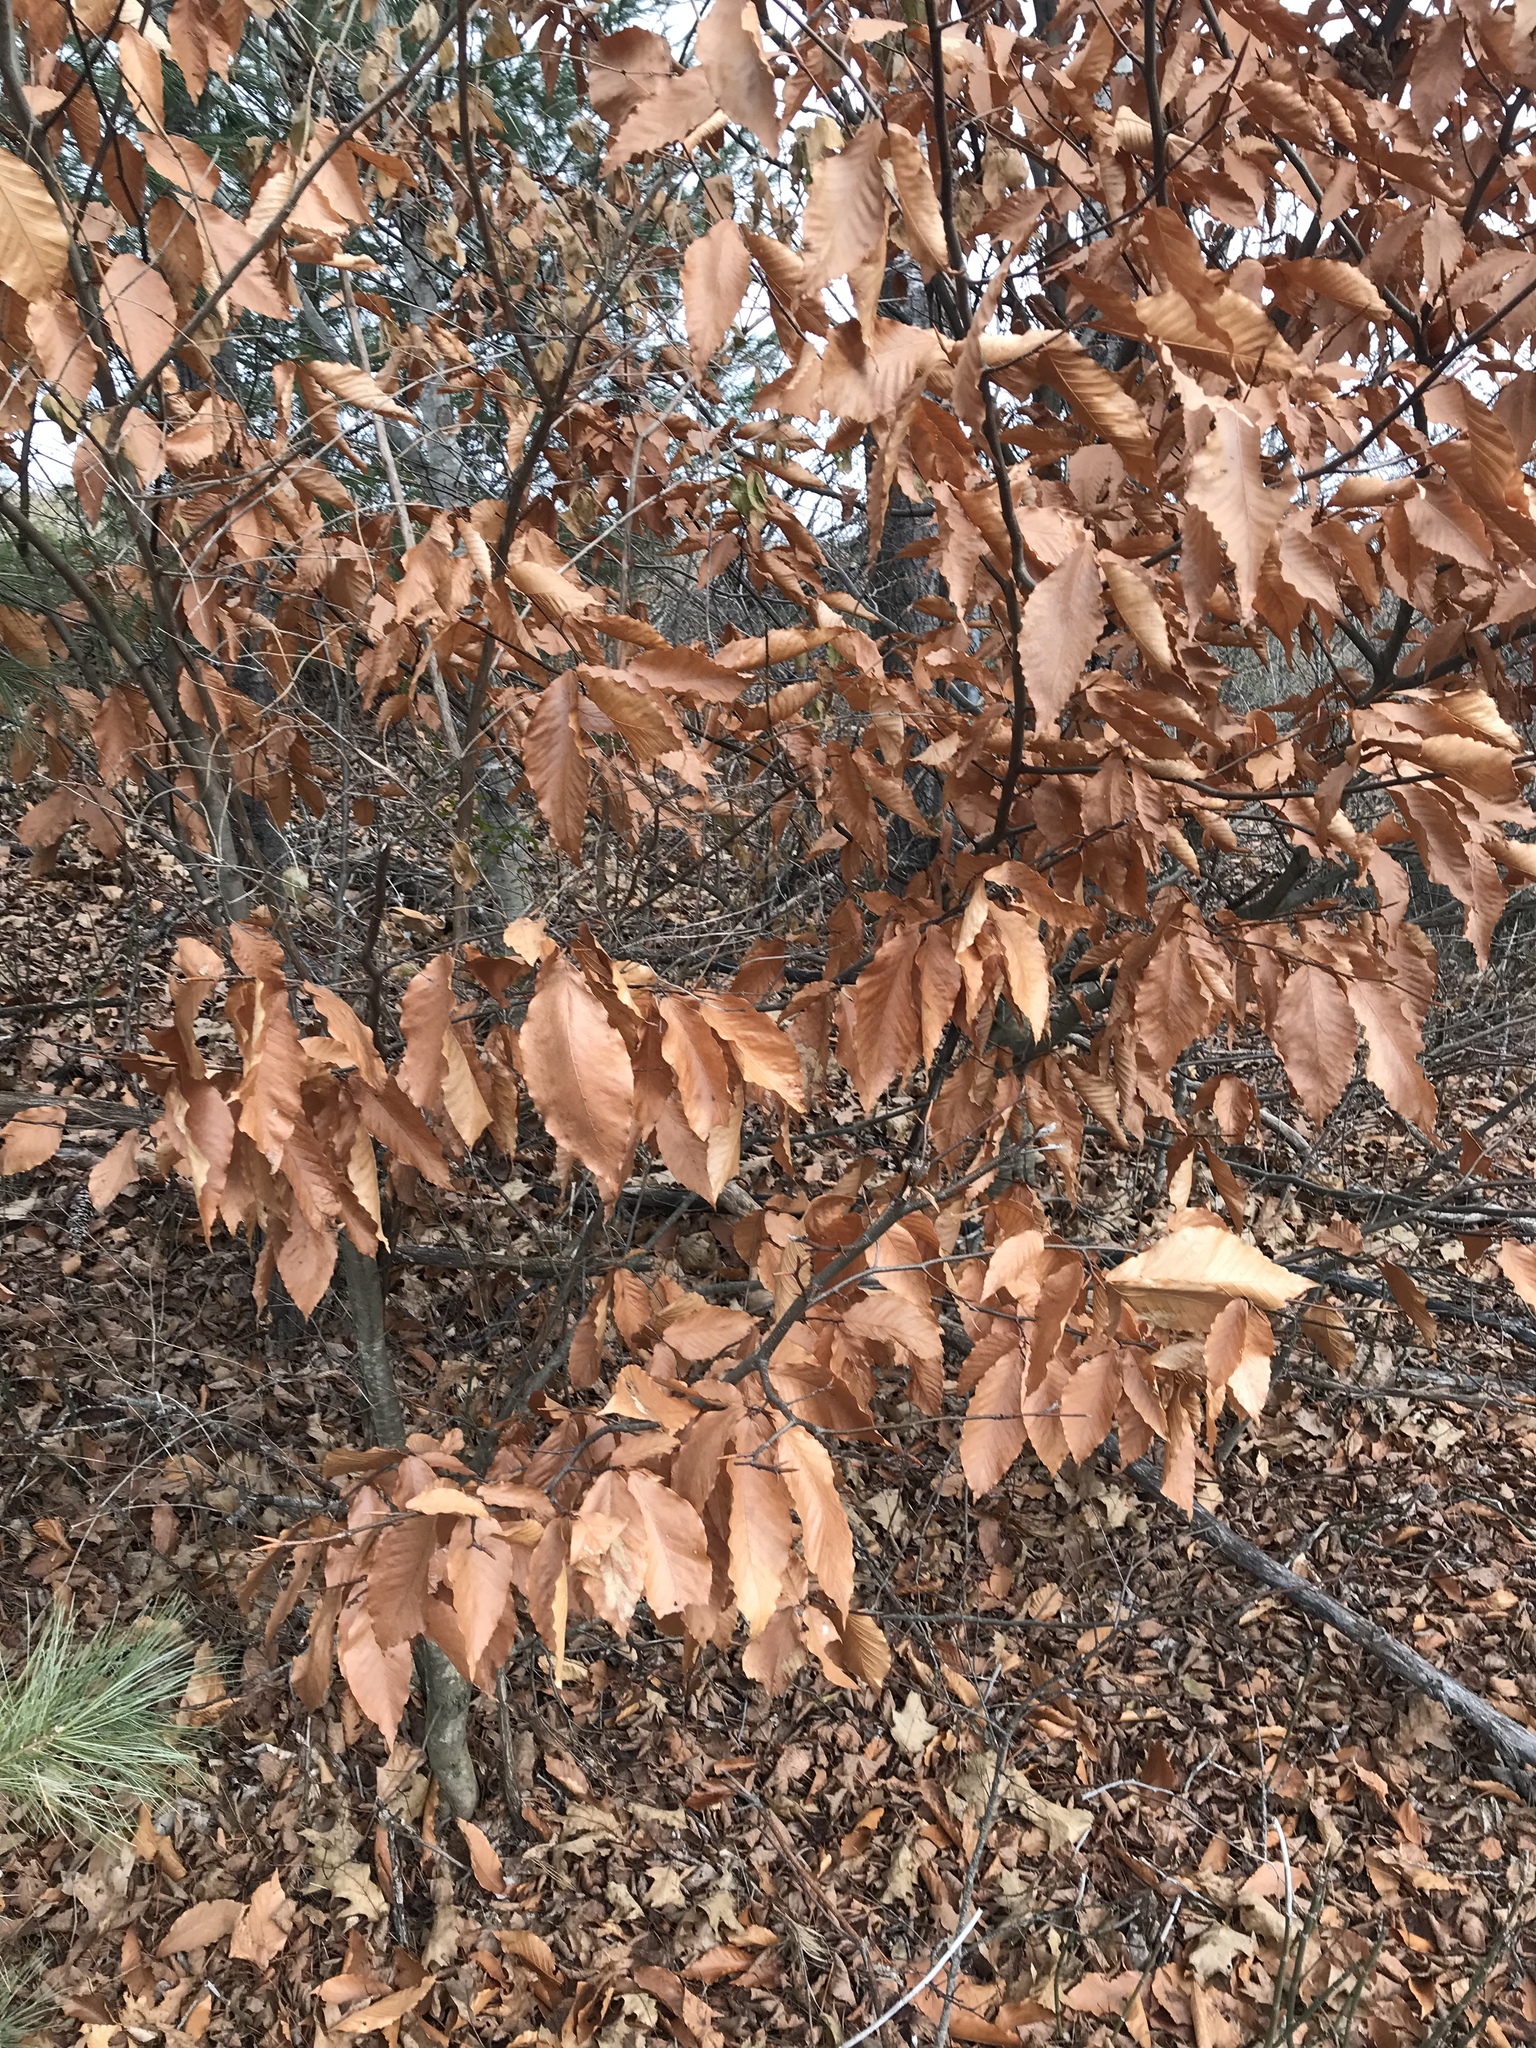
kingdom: Plantae
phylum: Tracheophyta
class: Magnoliopsida
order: Fagales
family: Fagaceae
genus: Fagus
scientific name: Fagus grandifolia
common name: American beech
